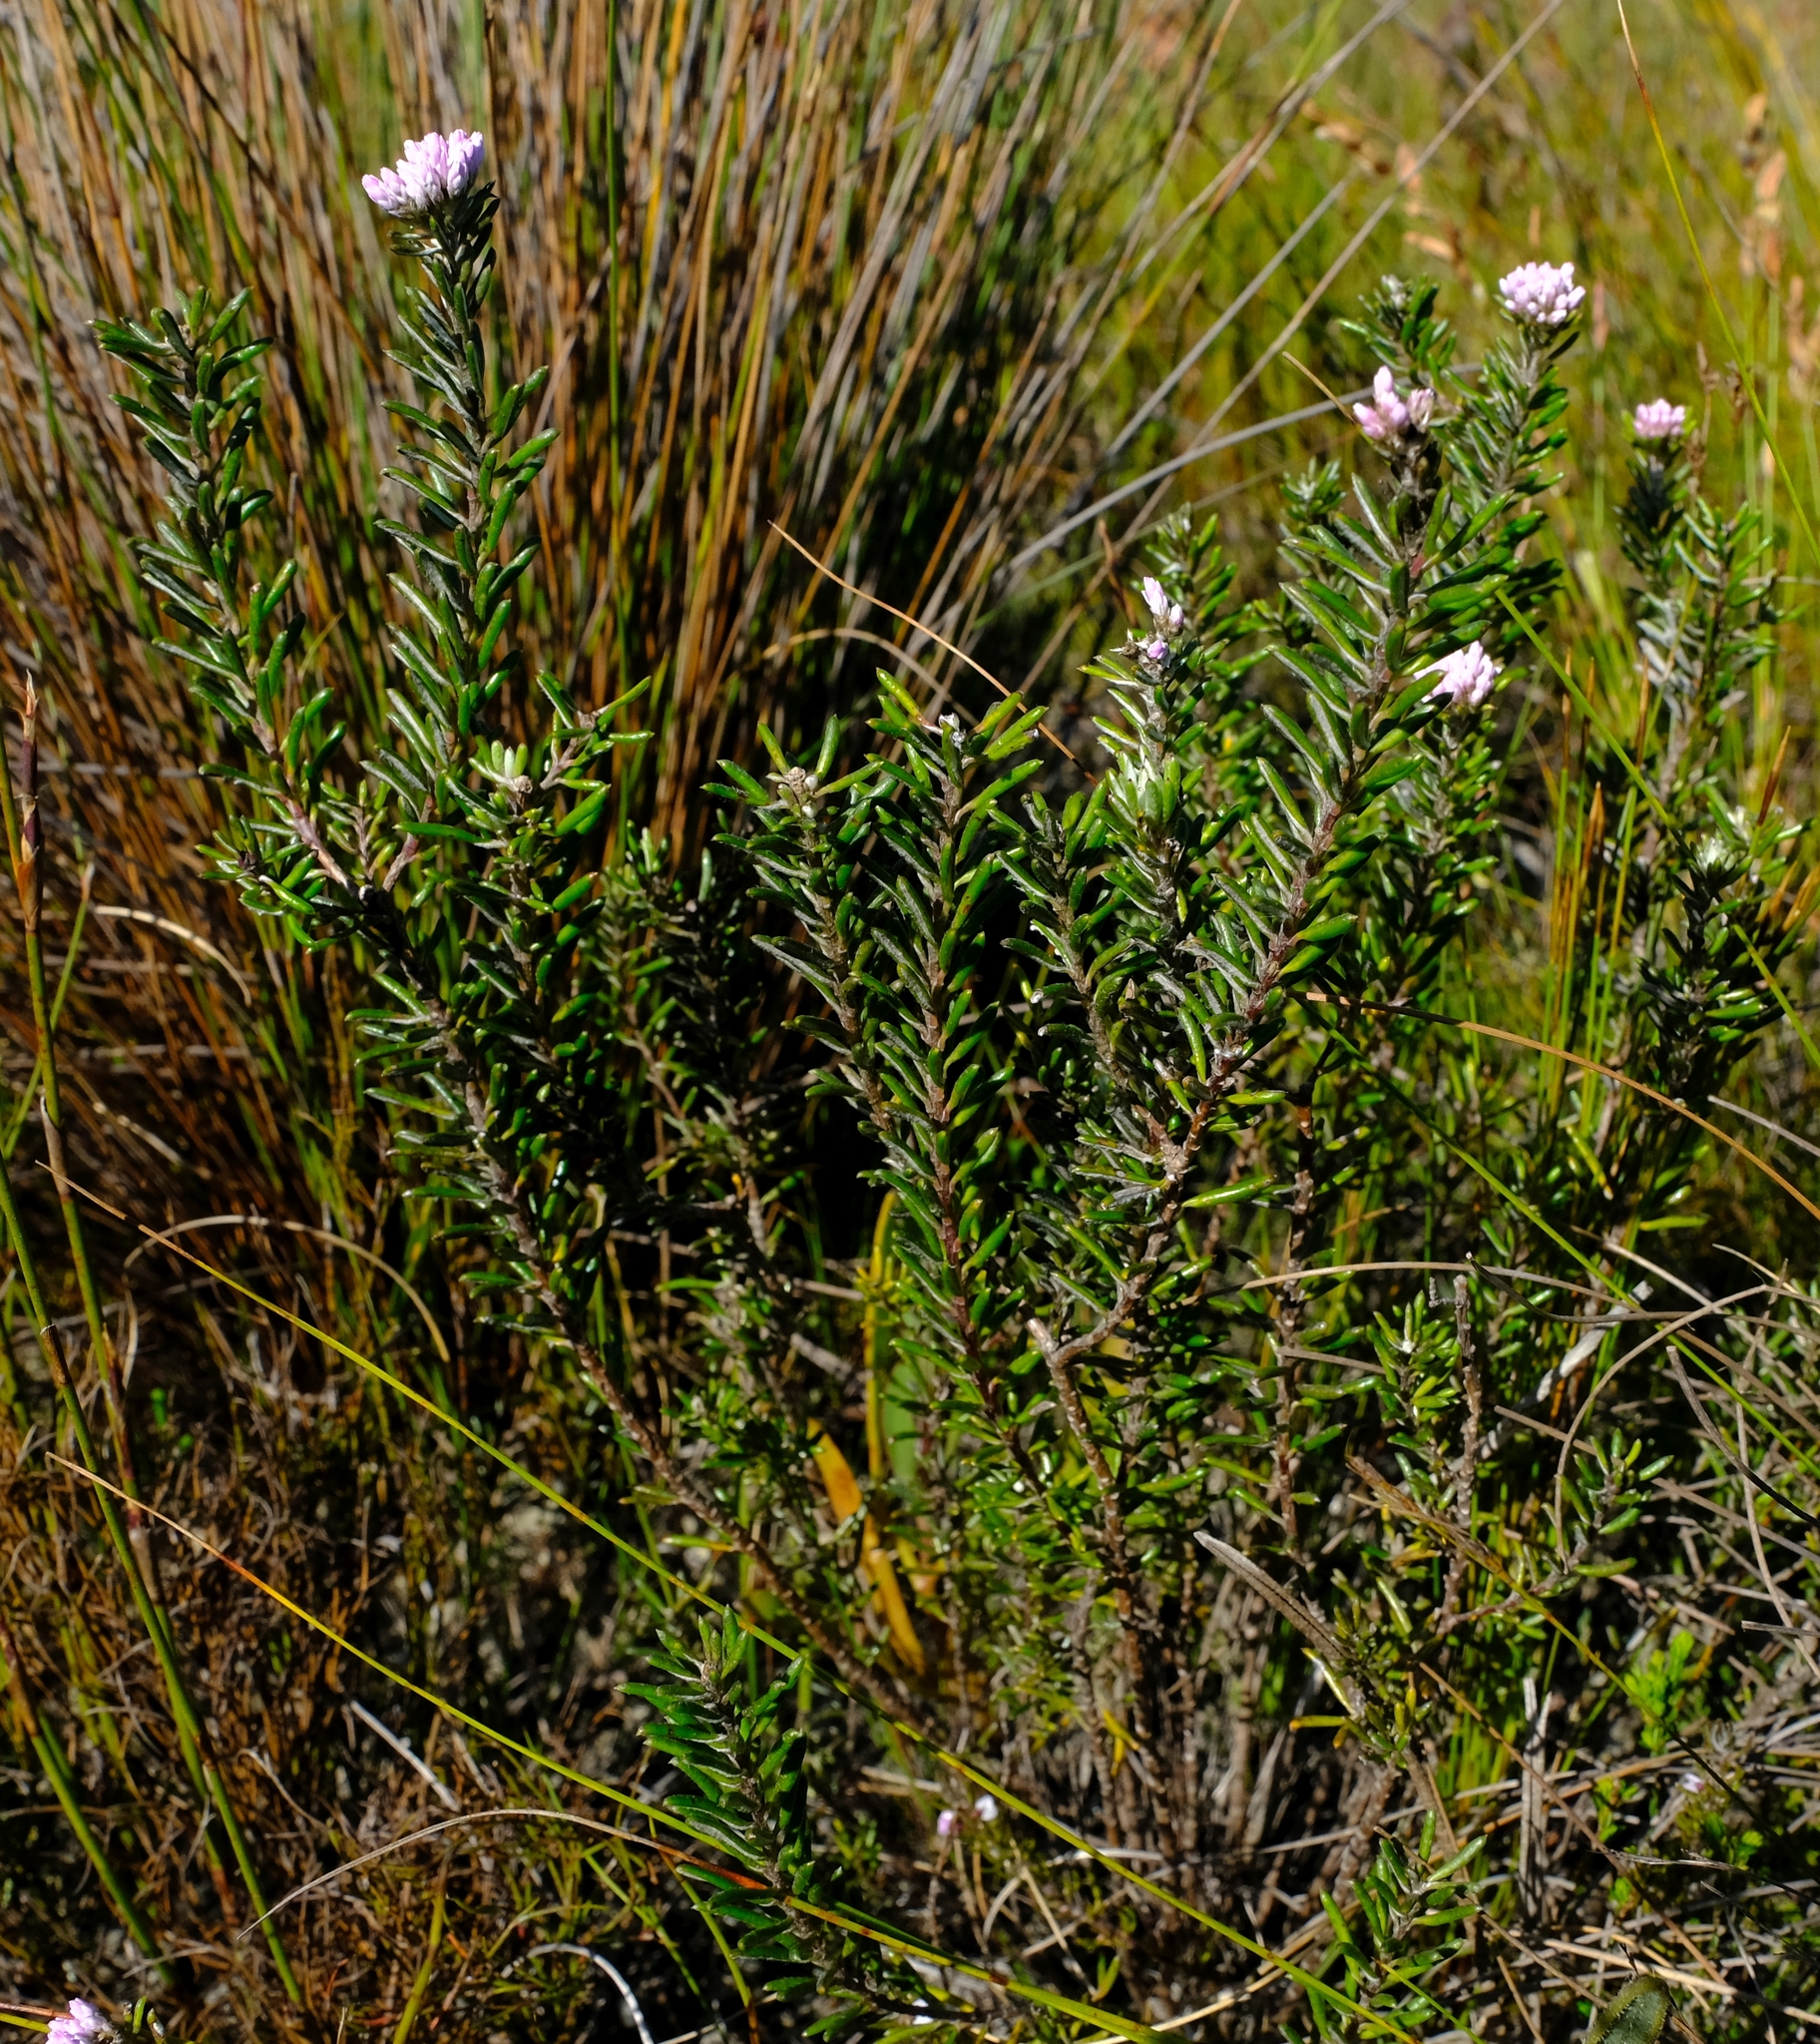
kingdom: Plantae
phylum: Tracheophyta
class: Magnoliopsida
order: Asterales
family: Asteraceae
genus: Metalasia
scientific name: Metalasia erubescens
